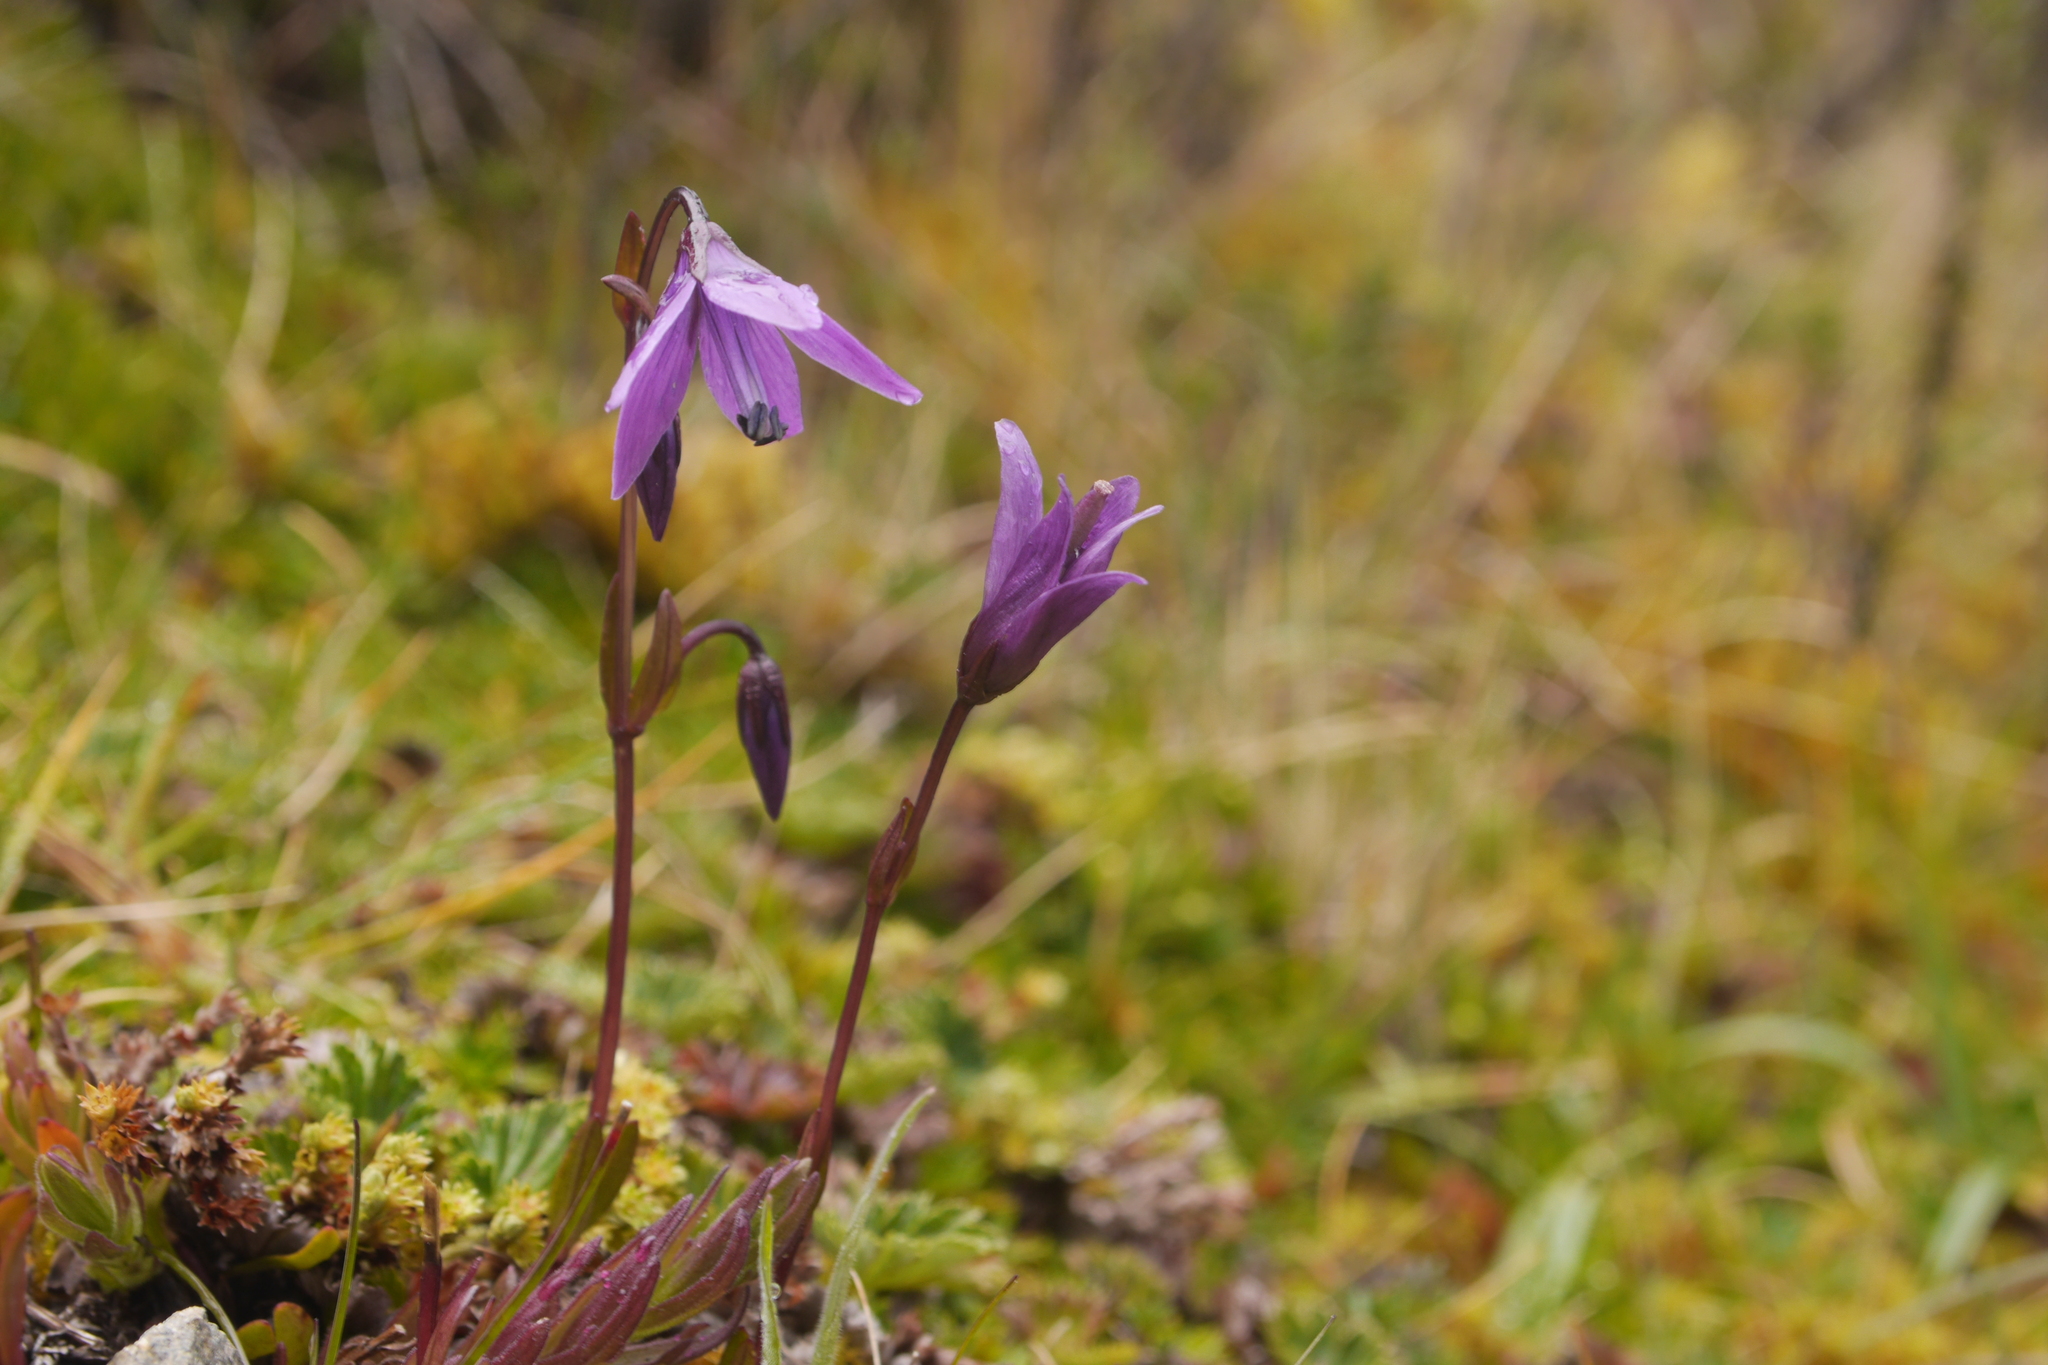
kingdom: Plantae
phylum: Tracheophyta
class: Magnoliopsida
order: Gentianales
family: Gentianaceae
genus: Gentianella
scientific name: Gentianella rapunculoides
